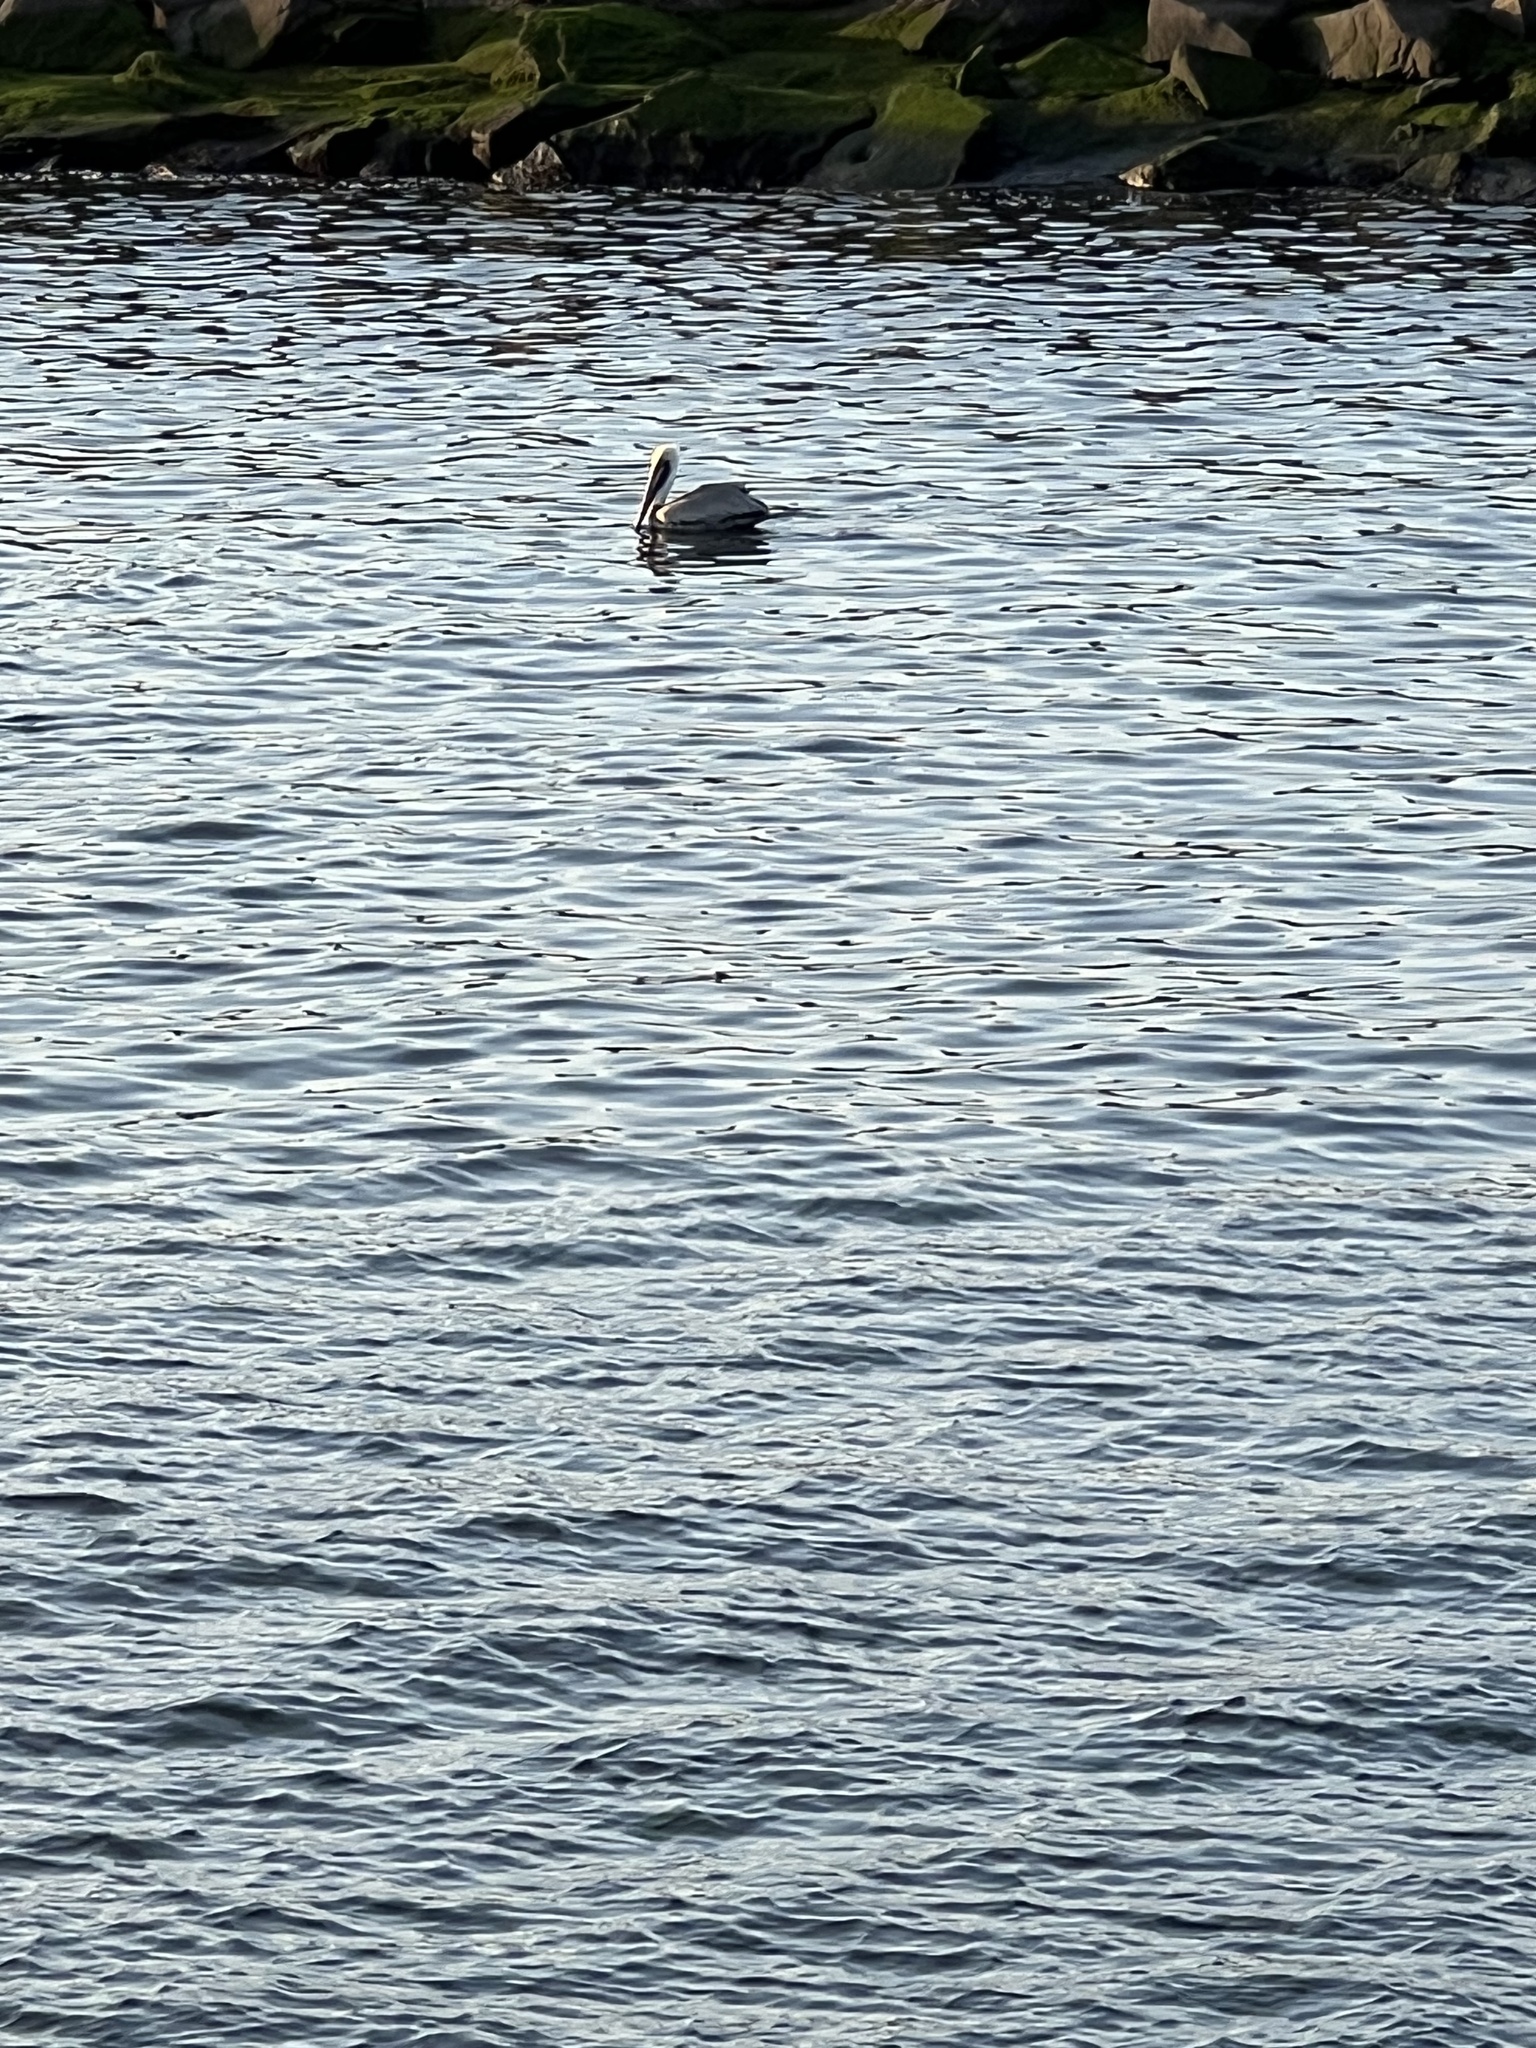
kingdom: Animalia
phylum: Chordata
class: Aves
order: Pelecaniformes
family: Pelecanidae
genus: Pelecanus
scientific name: Pelecanus occidentalis
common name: Brown pelican
